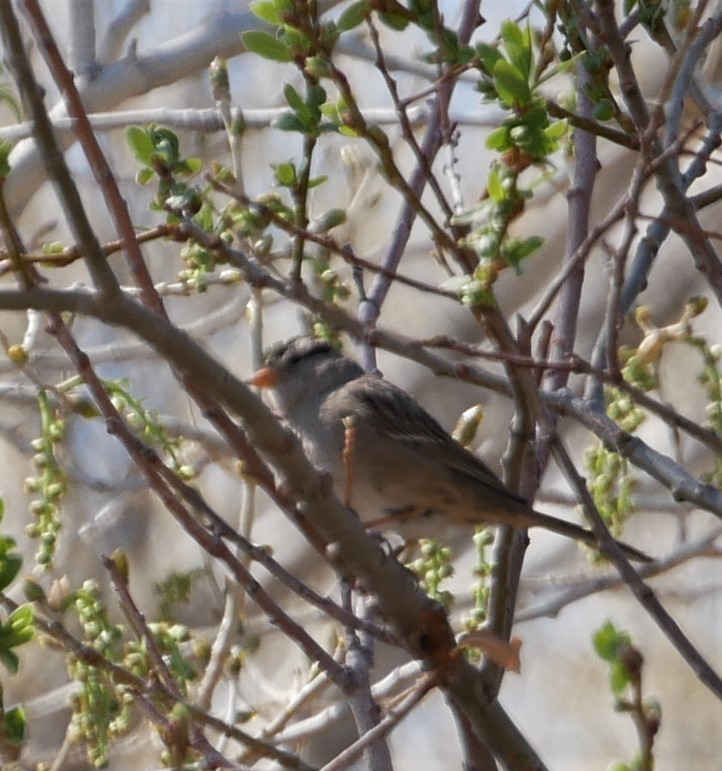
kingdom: Animalia
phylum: Chordata
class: Aves
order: Passeriformes
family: Passerellidae
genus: Zonotrichia
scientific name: Zonotrichia leucophrys
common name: White-crowned sparrow
